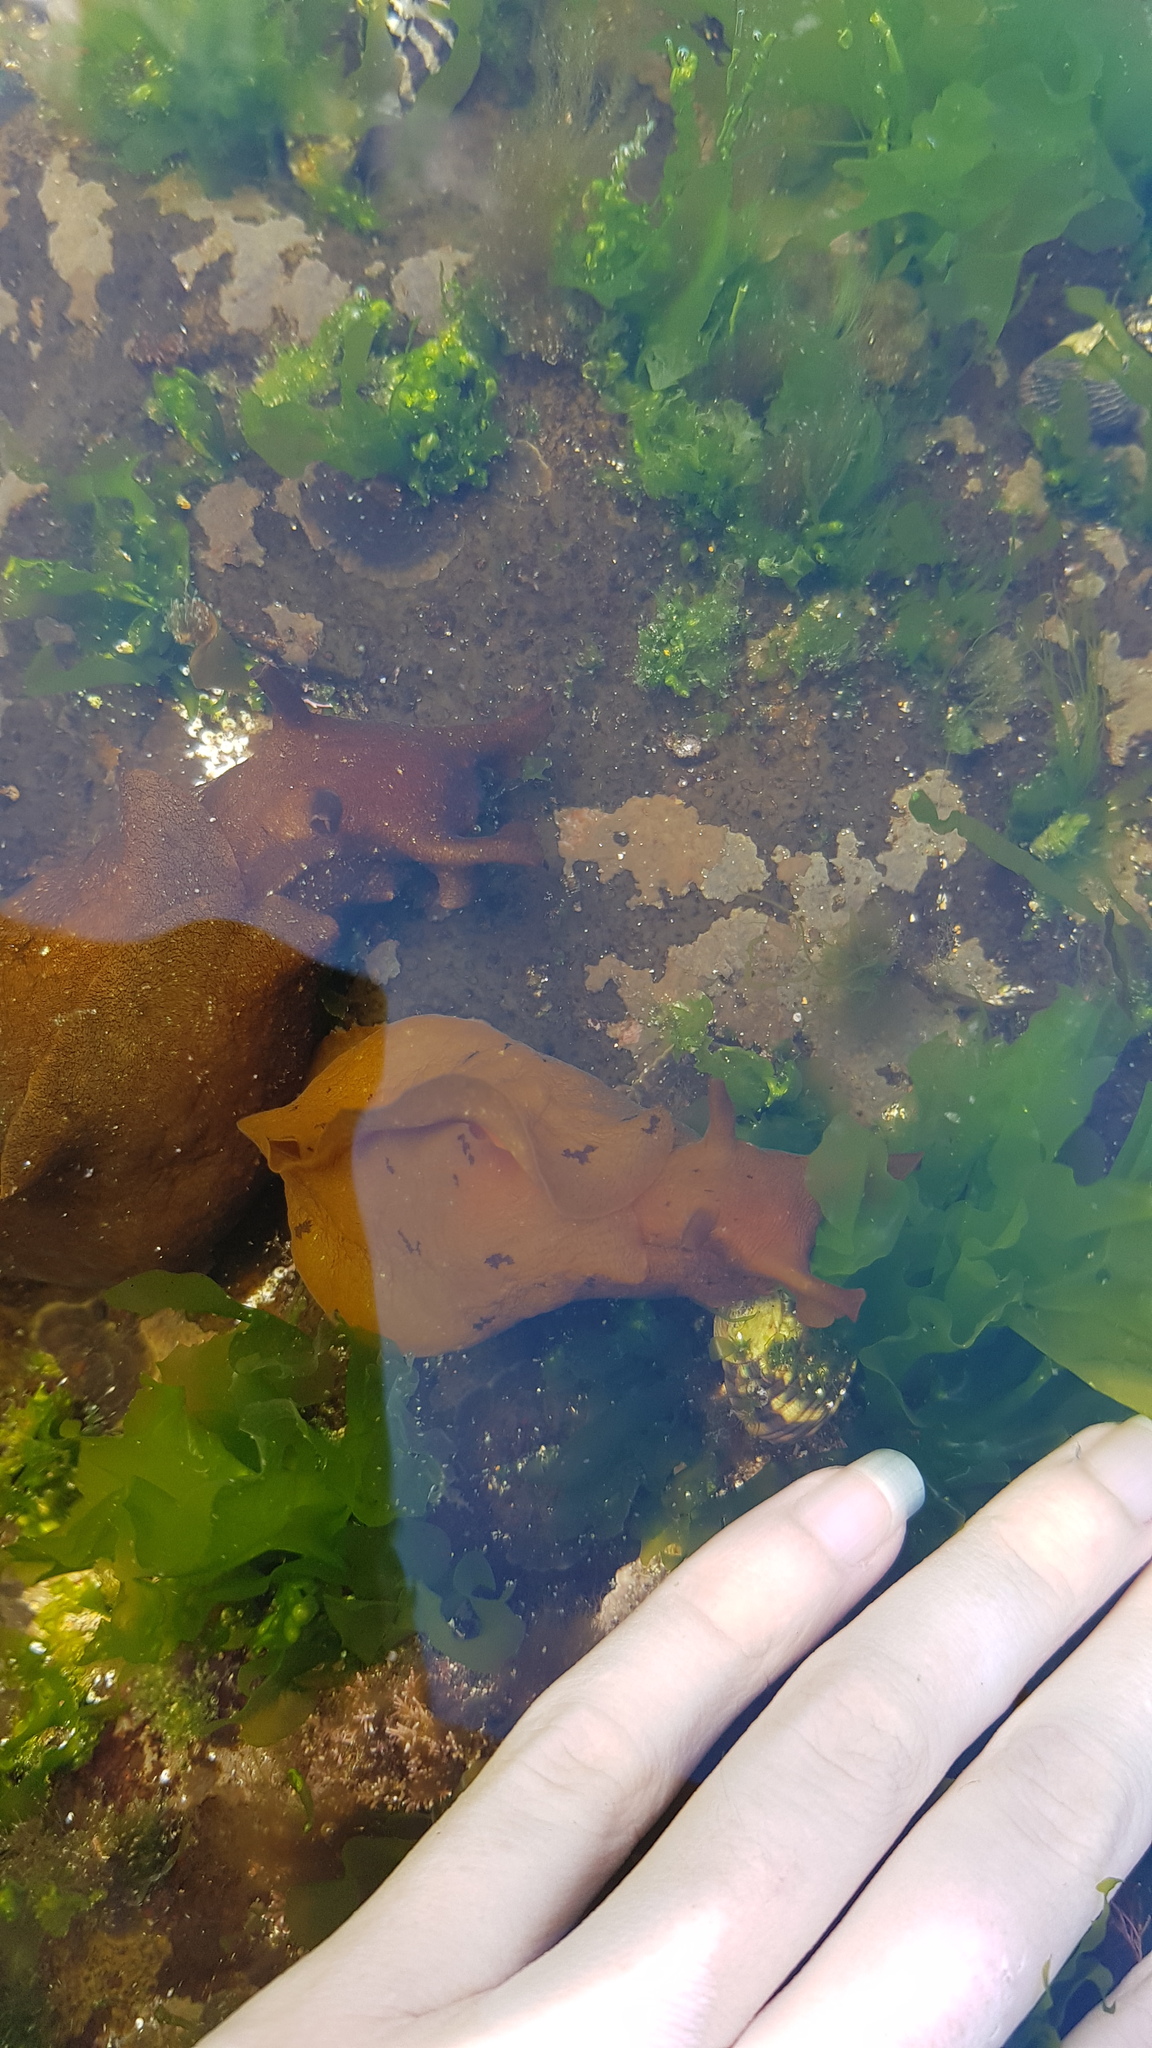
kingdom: Animalia
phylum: Mollusca
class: Gastropoda
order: Aplysiida
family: Aplysiidae
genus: Aplysia
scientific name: Aplysia juliana
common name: Walking sea hare
